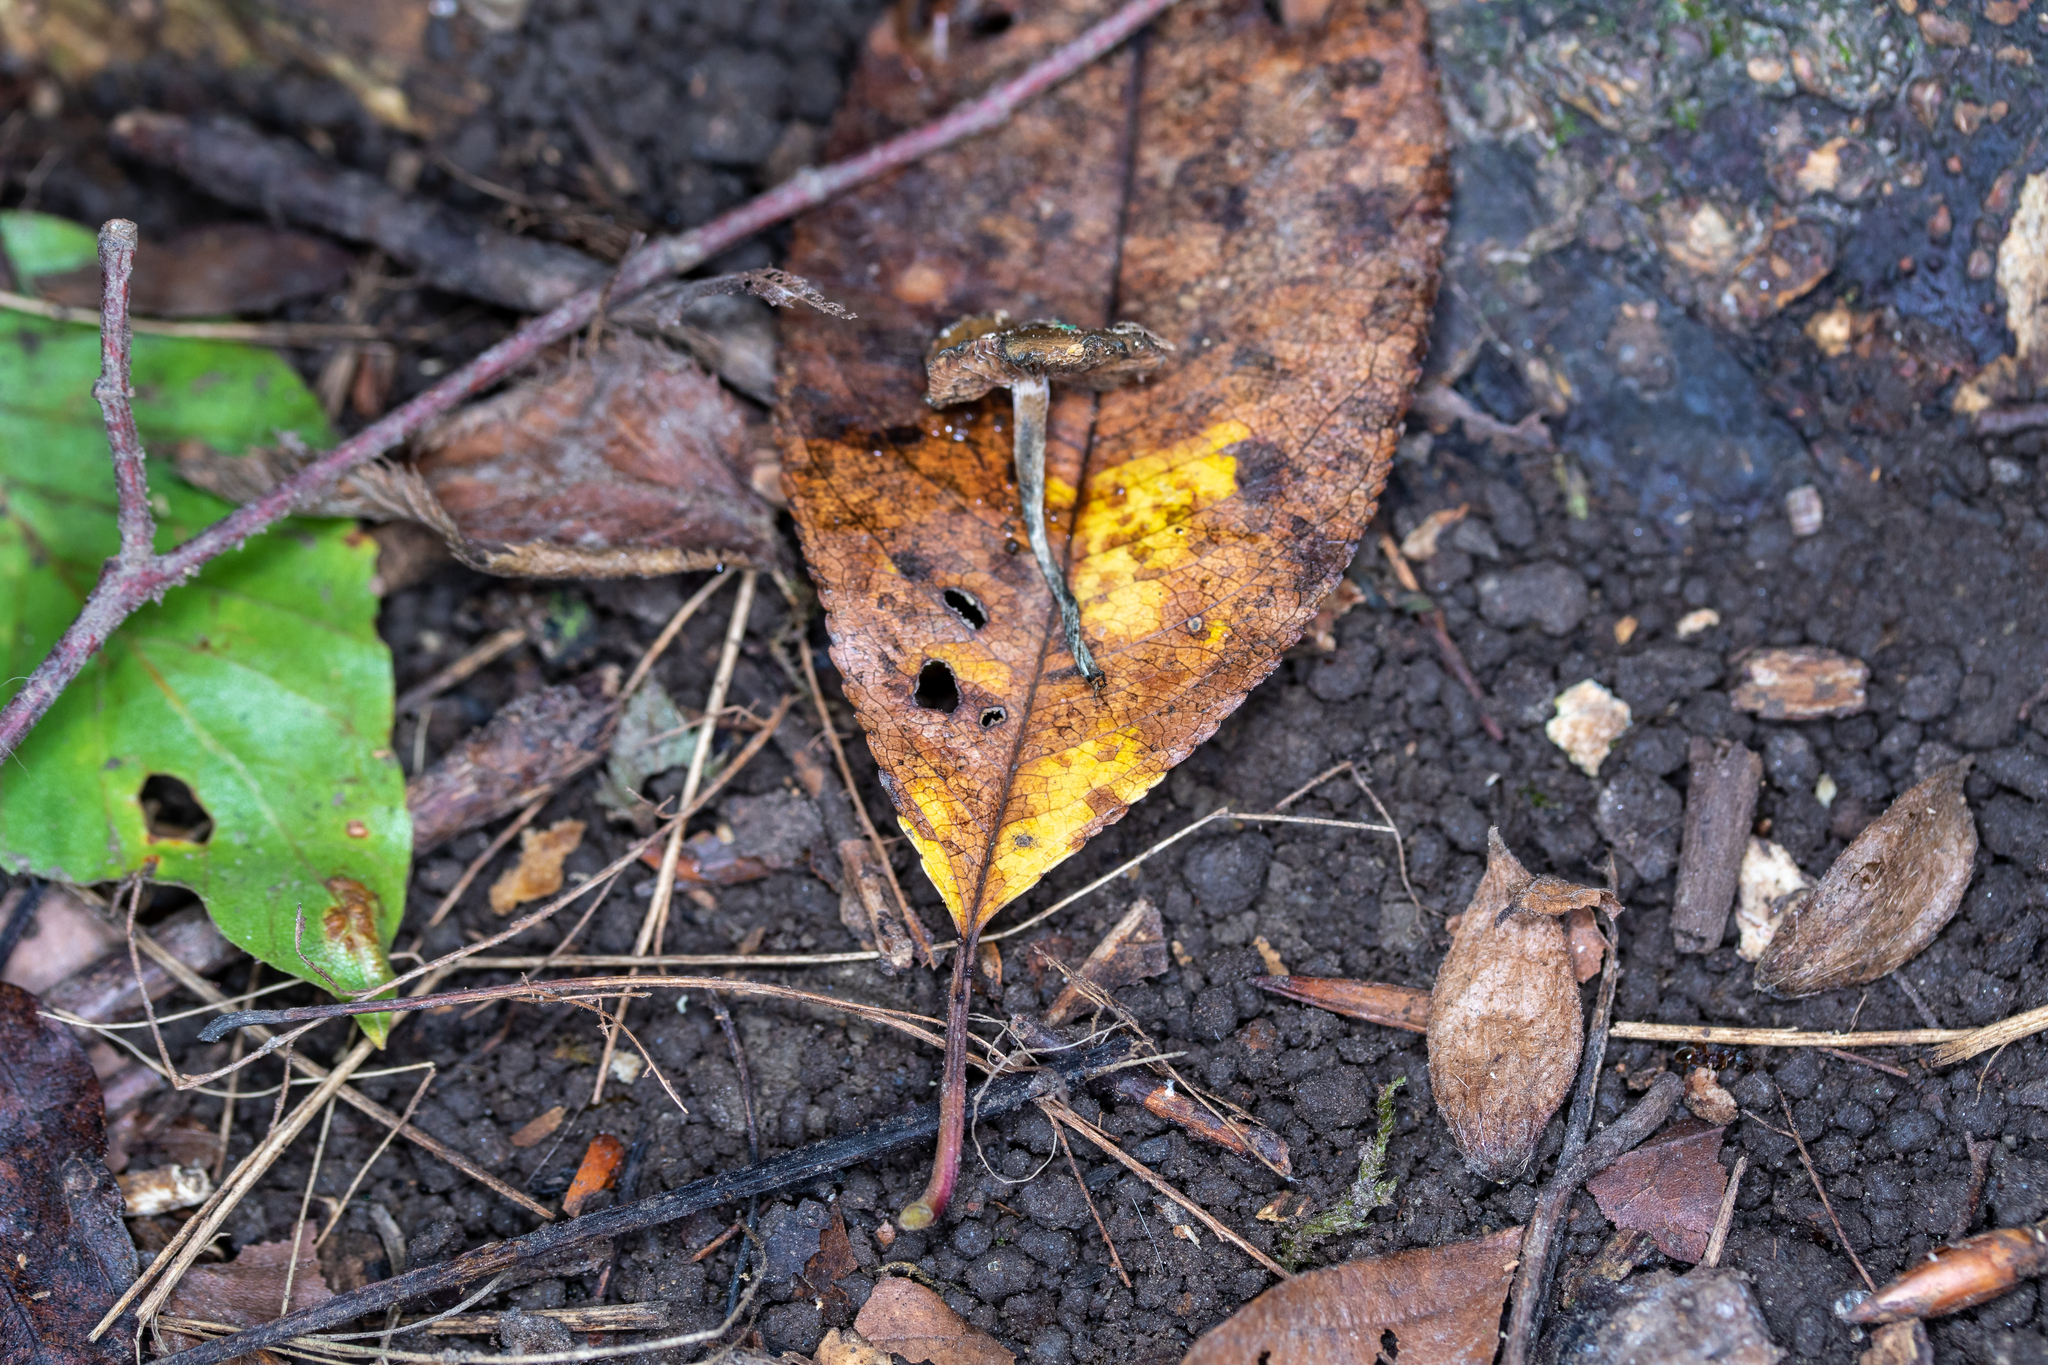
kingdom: Fungi
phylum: Basidiomycota
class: Agaricomycetes
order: Agaricales
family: Hymenogastraceae
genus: Psilocybe
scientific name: Psilocybe caerulipes
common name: Blue-foot
